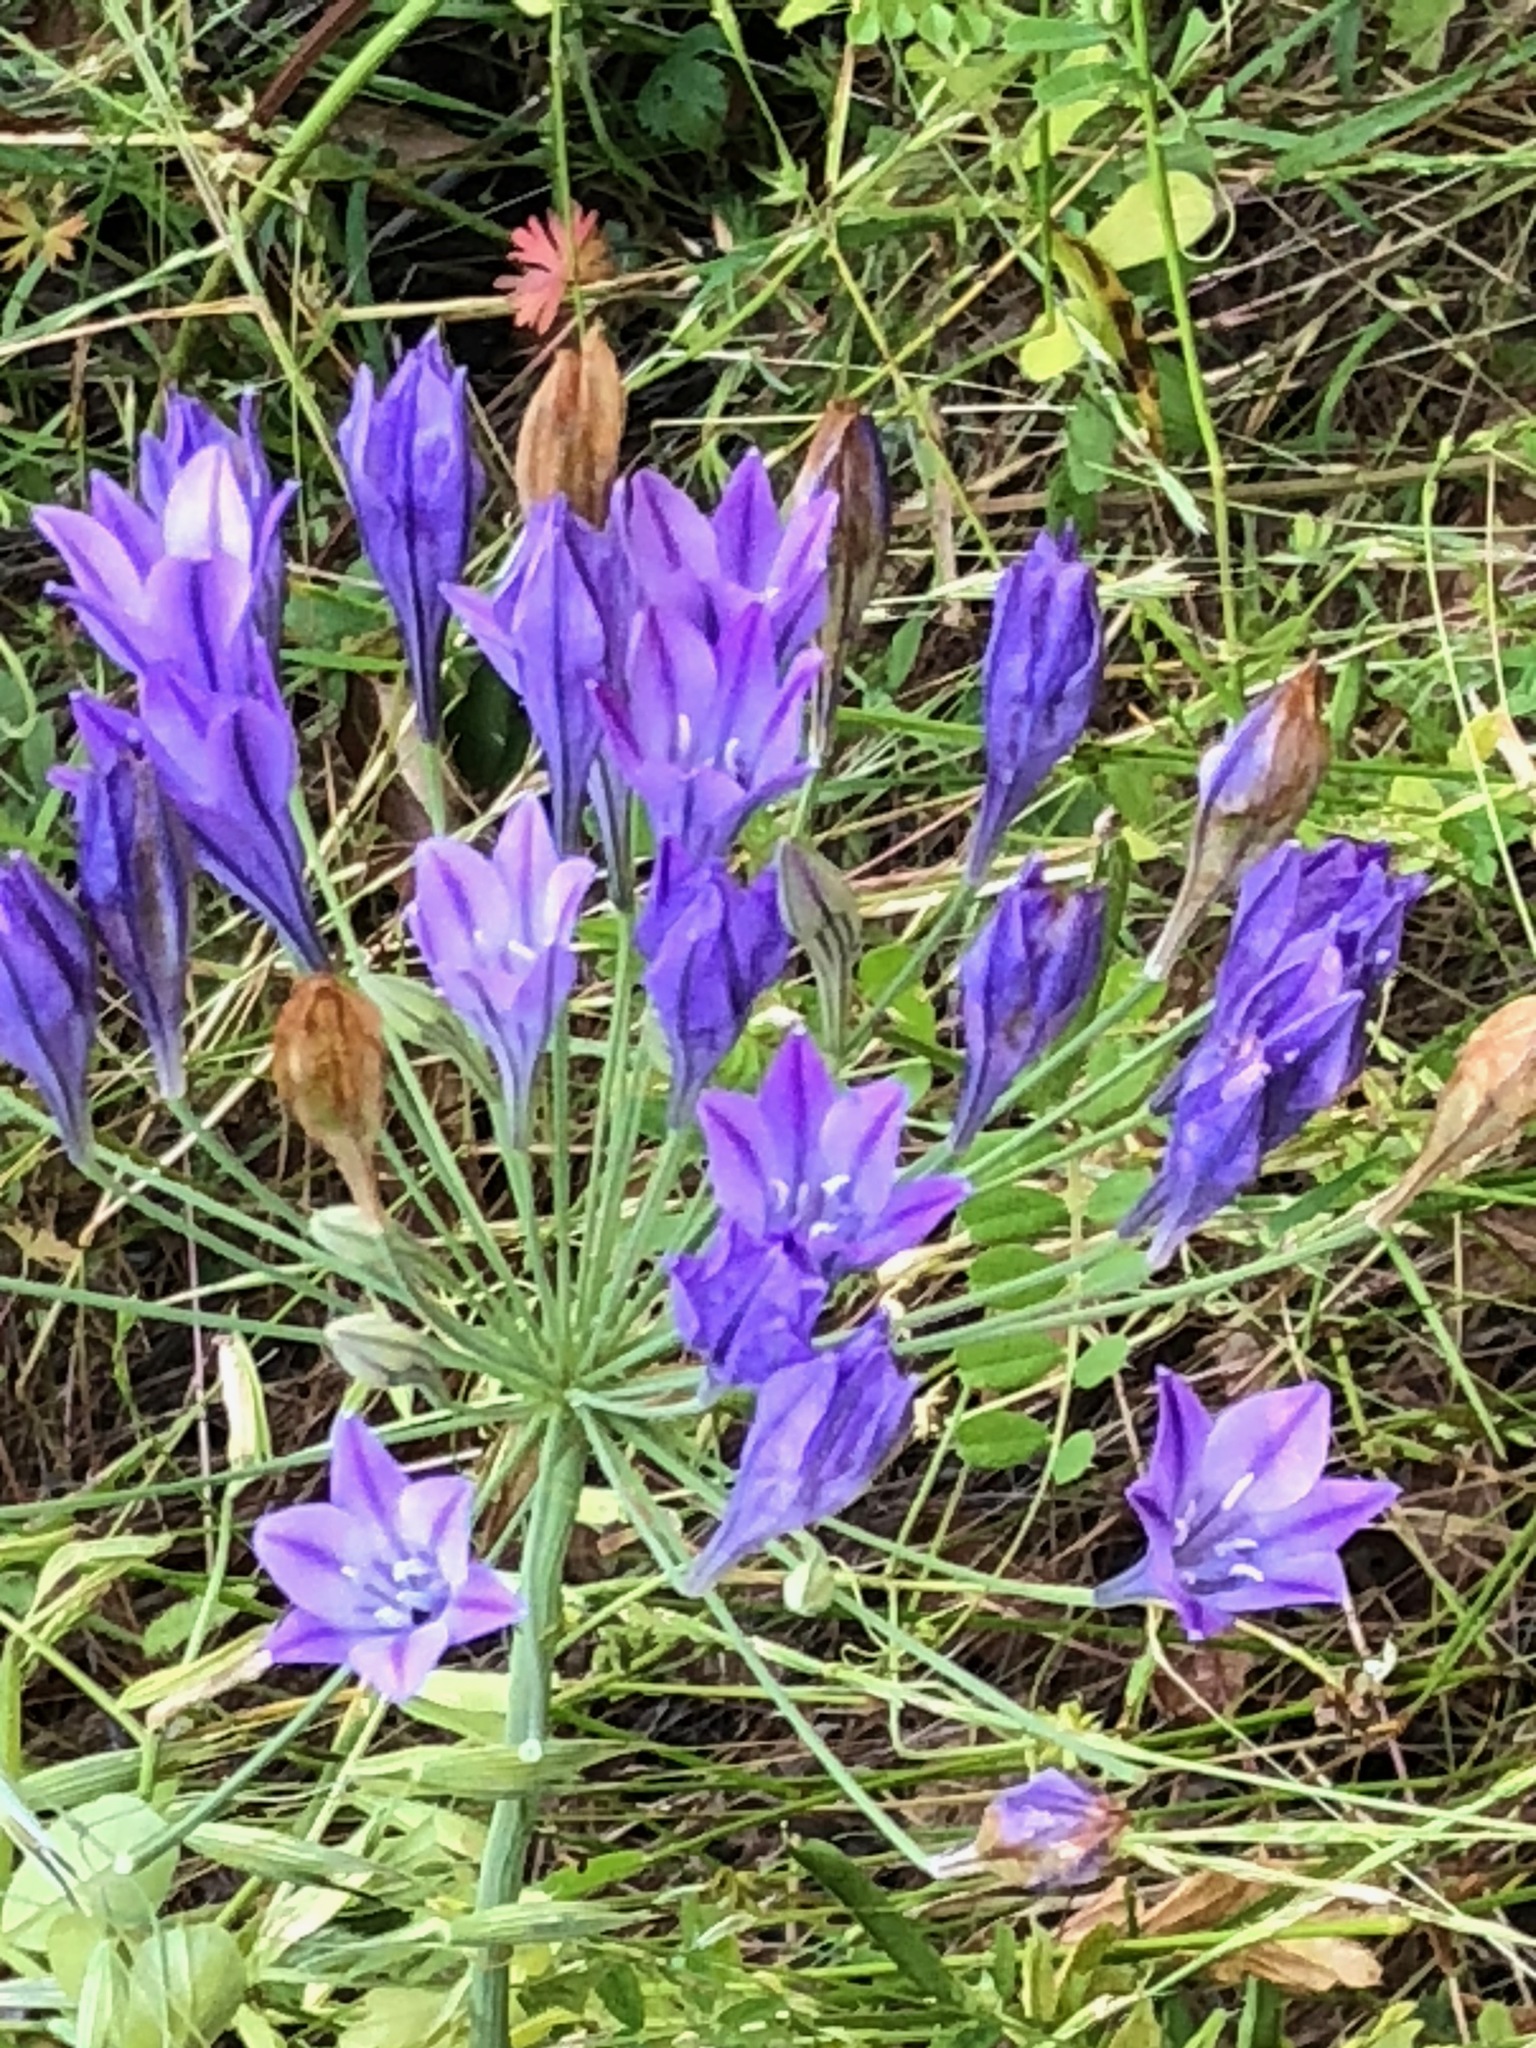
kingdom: Plantae
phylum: Tracheophyta
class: Liliopsida
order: Asparagales
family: Asparagaceae
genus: Triteleia
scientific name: Triteleia laxa
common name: Triplet-lily
